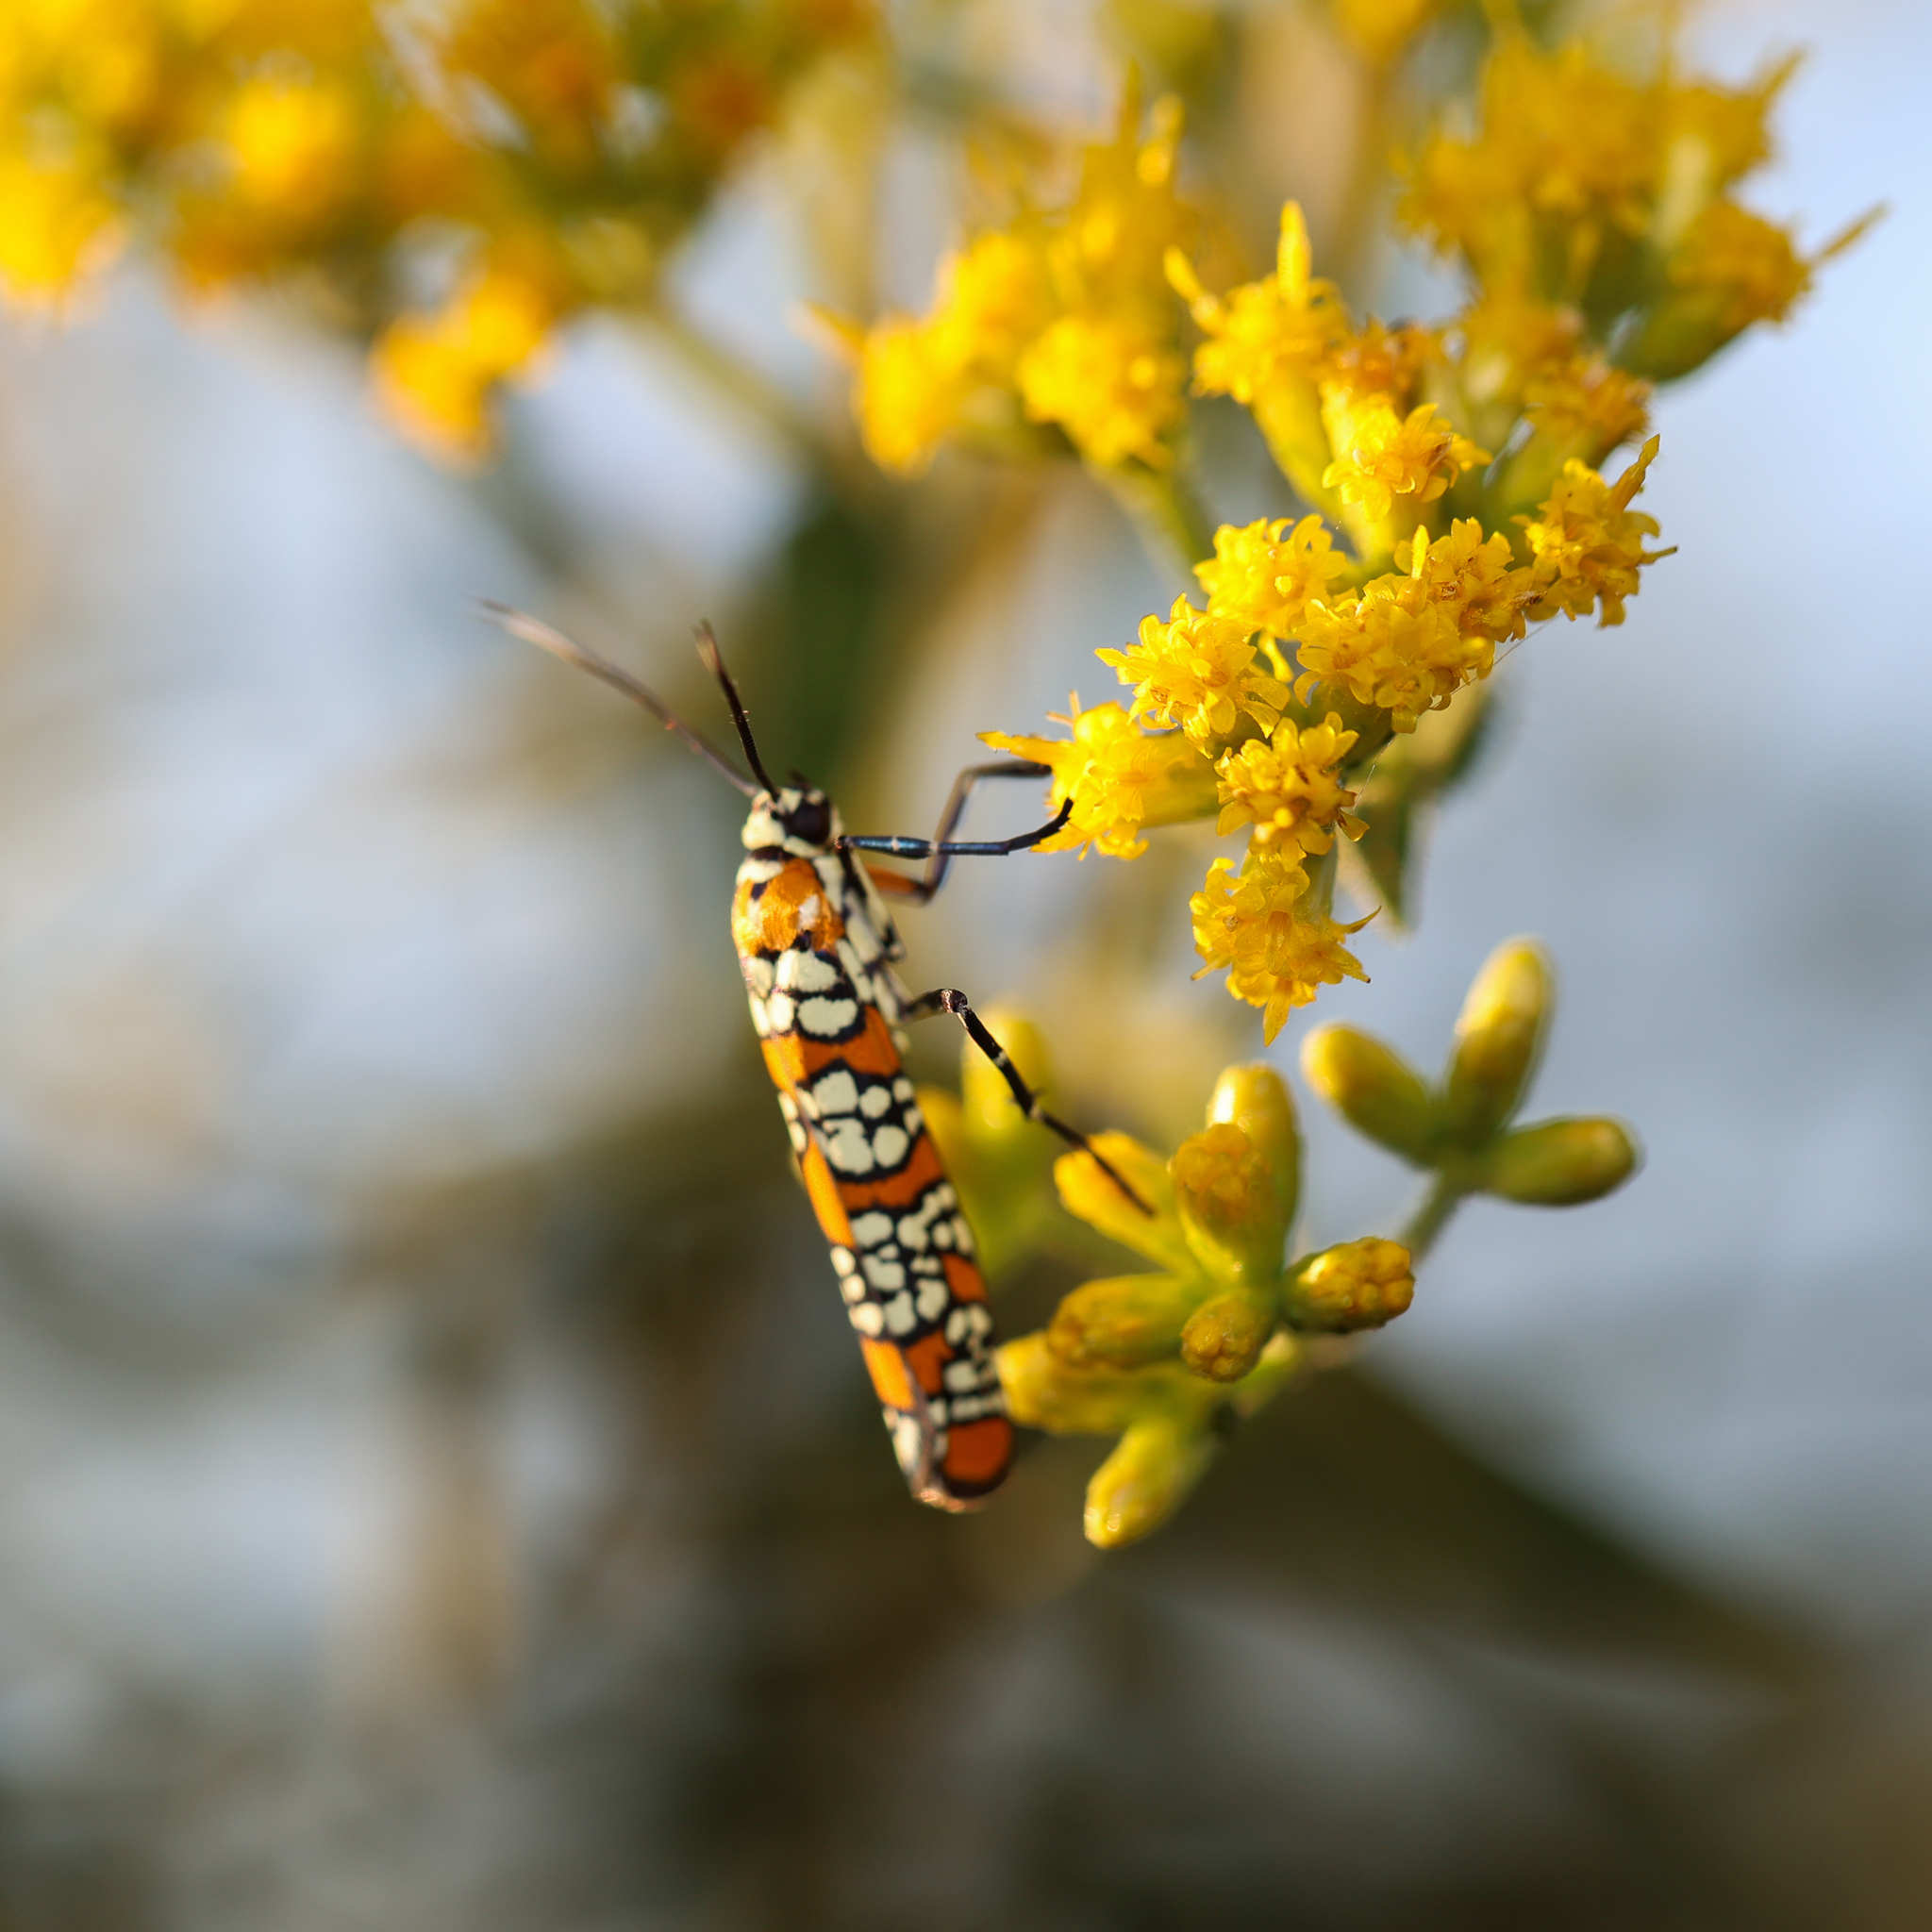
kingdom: Animalia
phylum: Arthropoda
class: Insecta
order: Lepidoptera
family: Attevidae
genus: Atteva
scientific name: Atteva punctella
